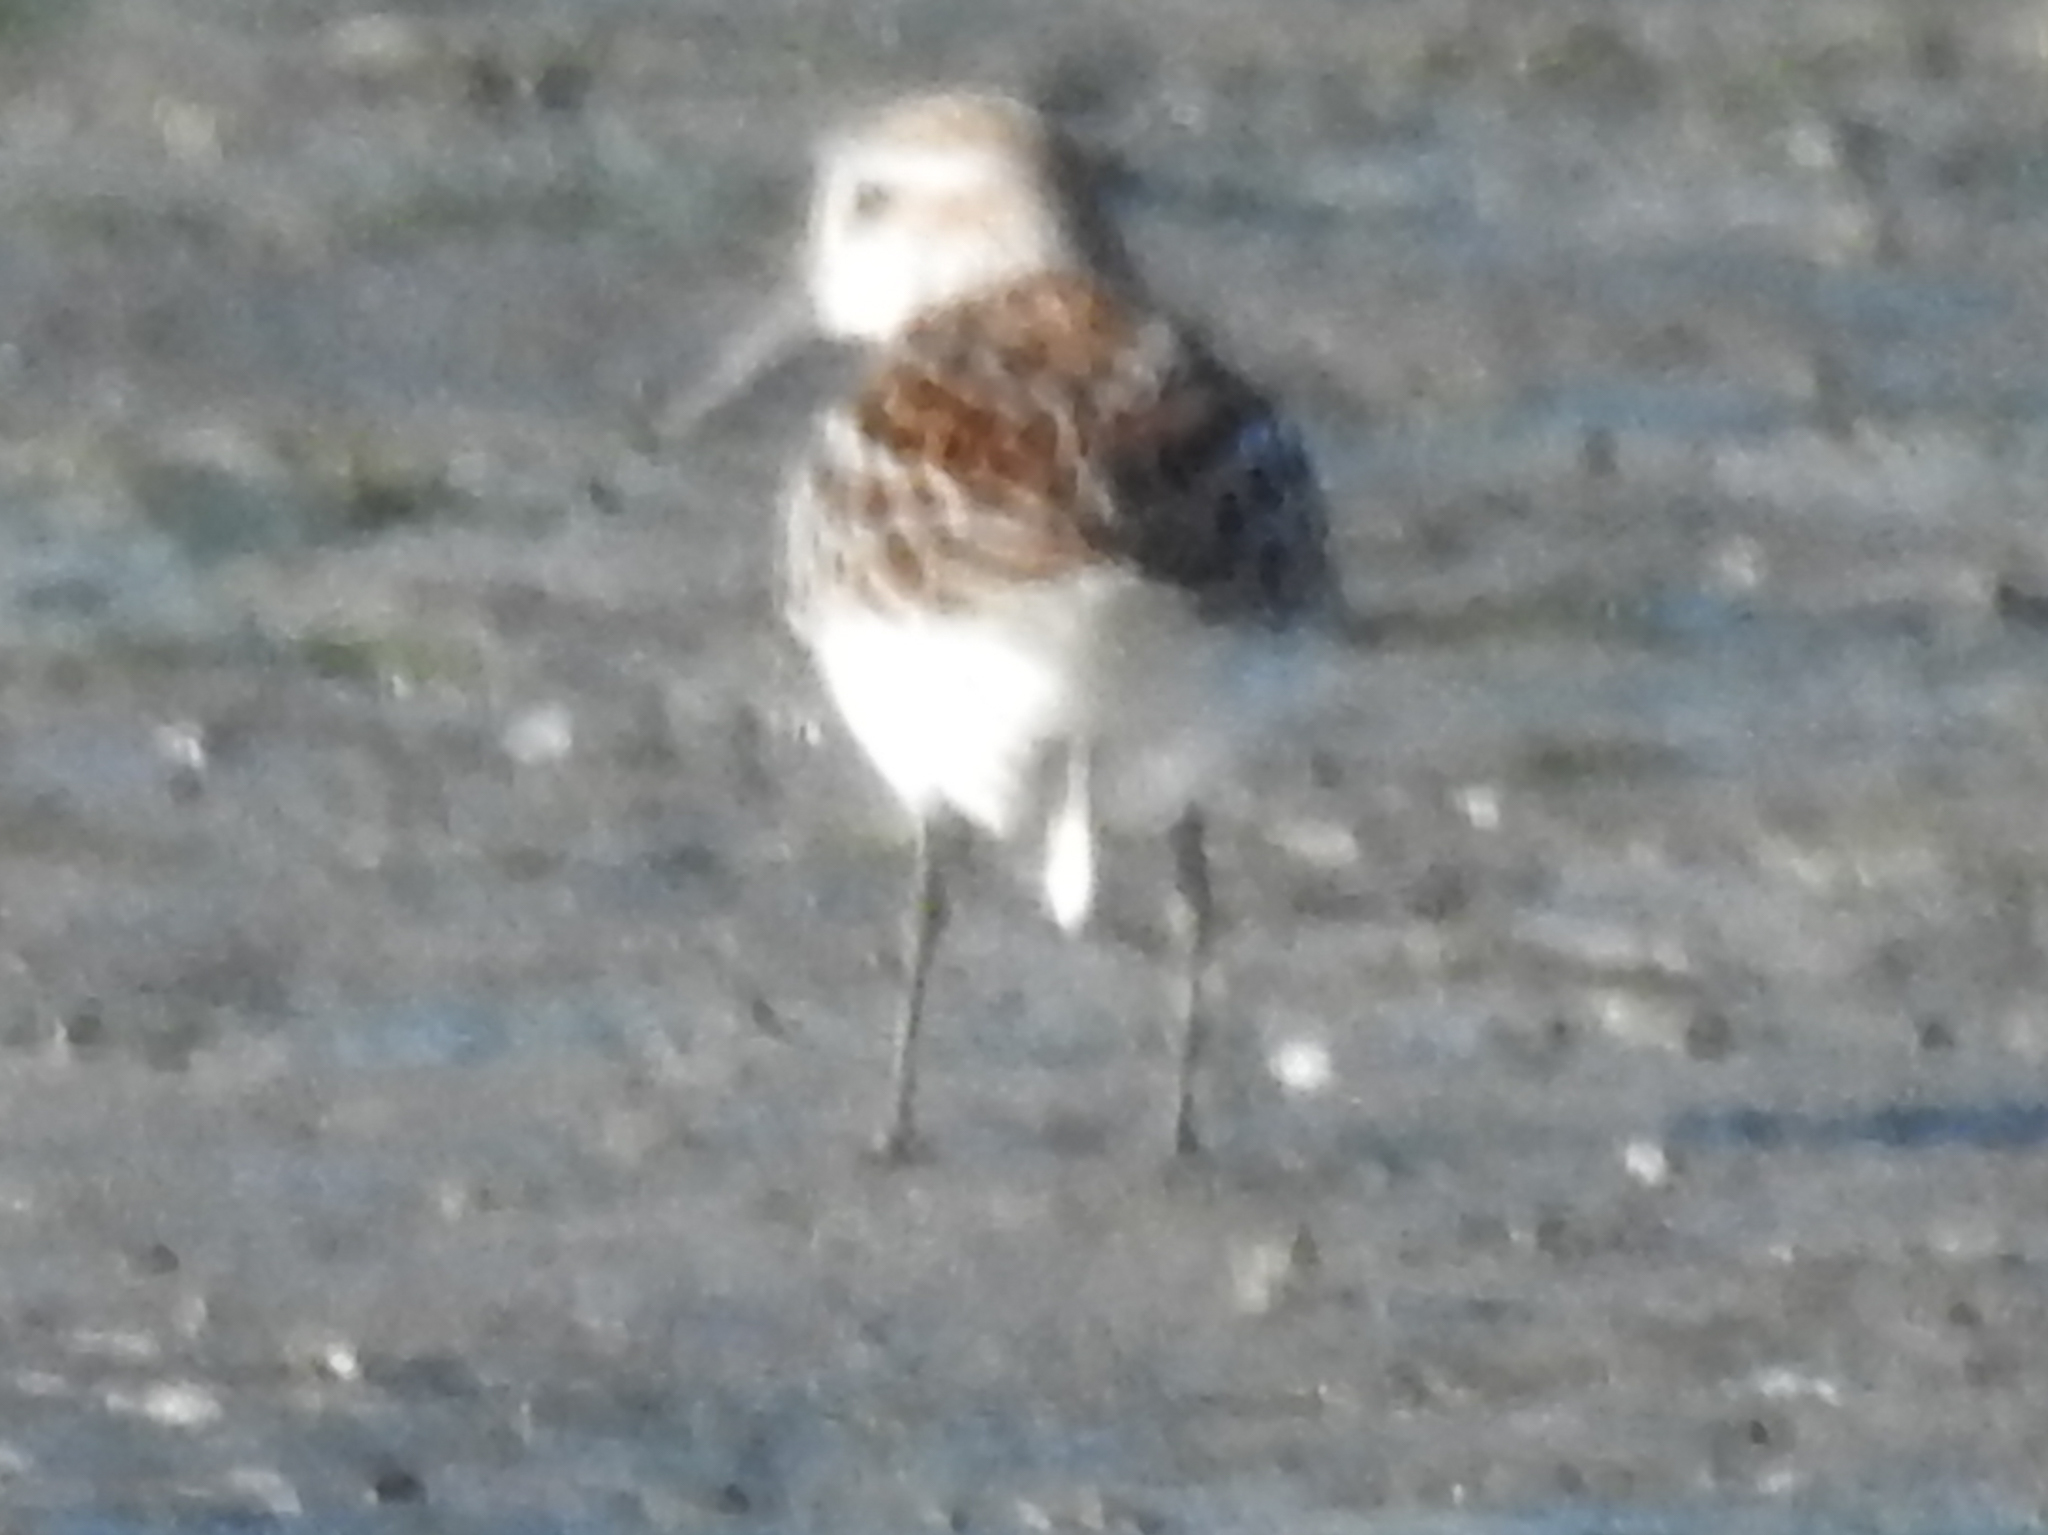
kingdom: Animalia
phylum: Chordata
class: Aves
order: Charadriiformes
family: Scolopacidae
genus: Calidris
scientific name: Calidris mauri
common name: Western sandpiper
